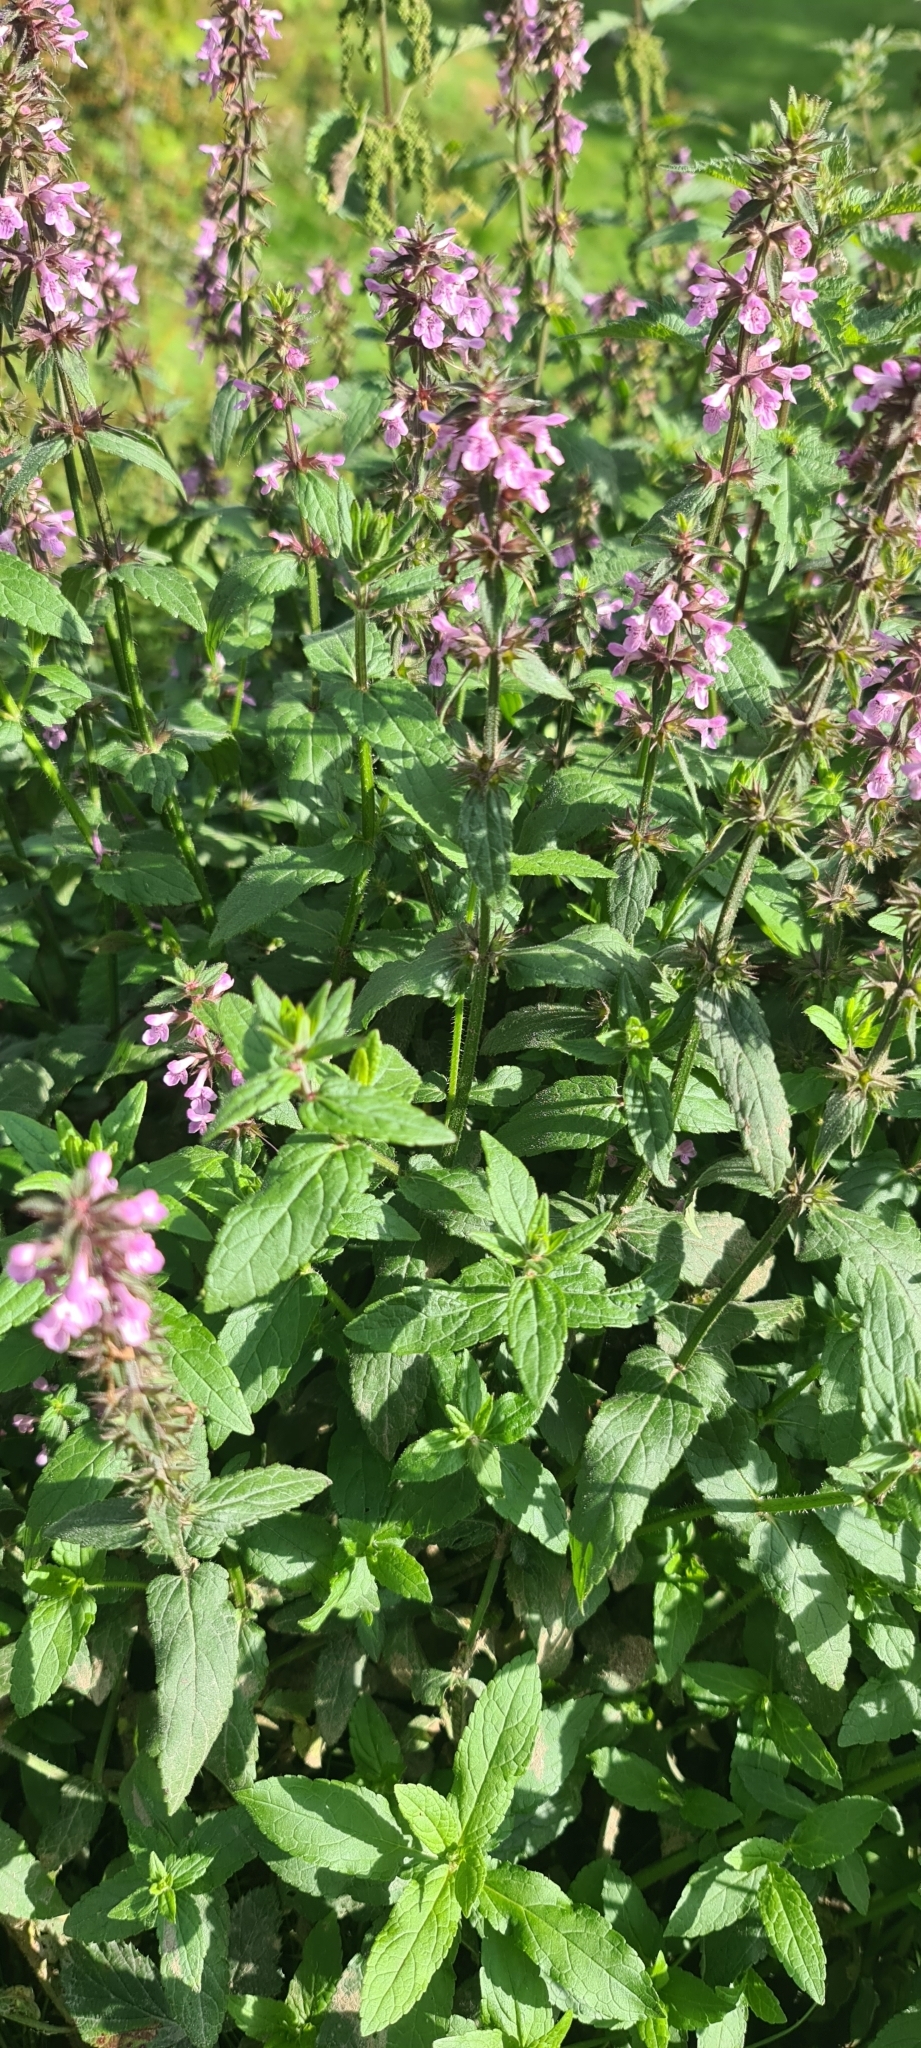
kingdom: Plantae
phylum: Tracheophyta
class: Magnoliopsida
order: Lamiales
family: Lamiaceae
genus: Stachys
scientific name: Stachys palustris
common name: Marsh woundwort
